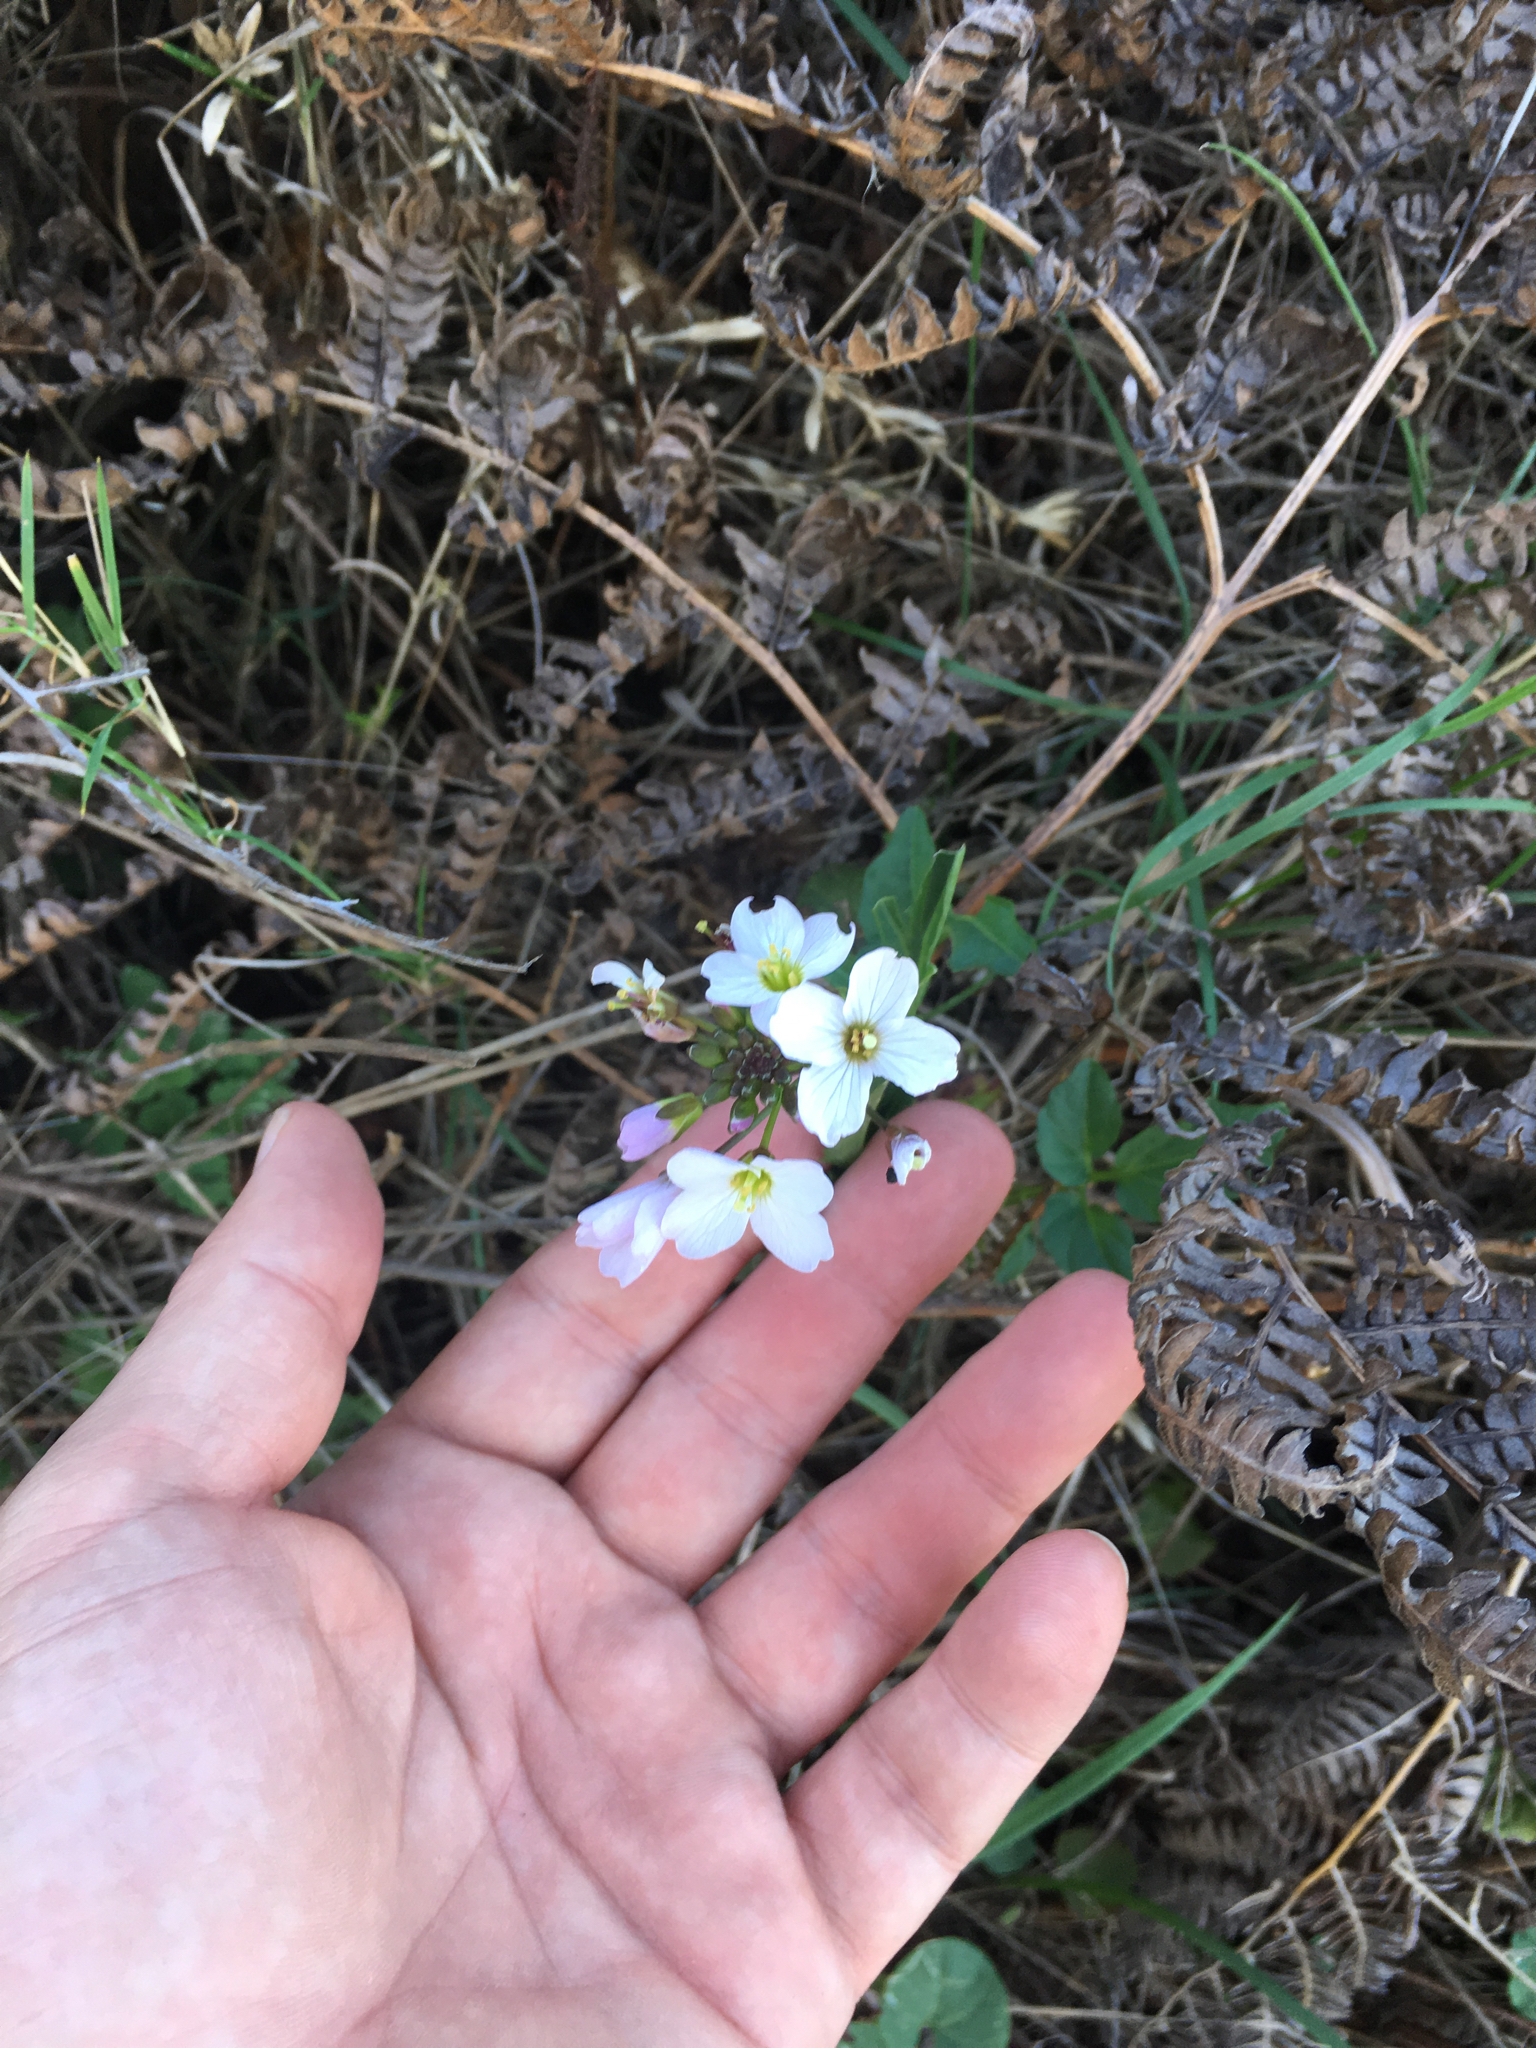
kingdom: Plantae
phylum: Tracheophyta
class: Magnoliopsida
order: Brassicales
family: Brassicaceae
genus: Cardamine
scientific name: Cardamine californica
